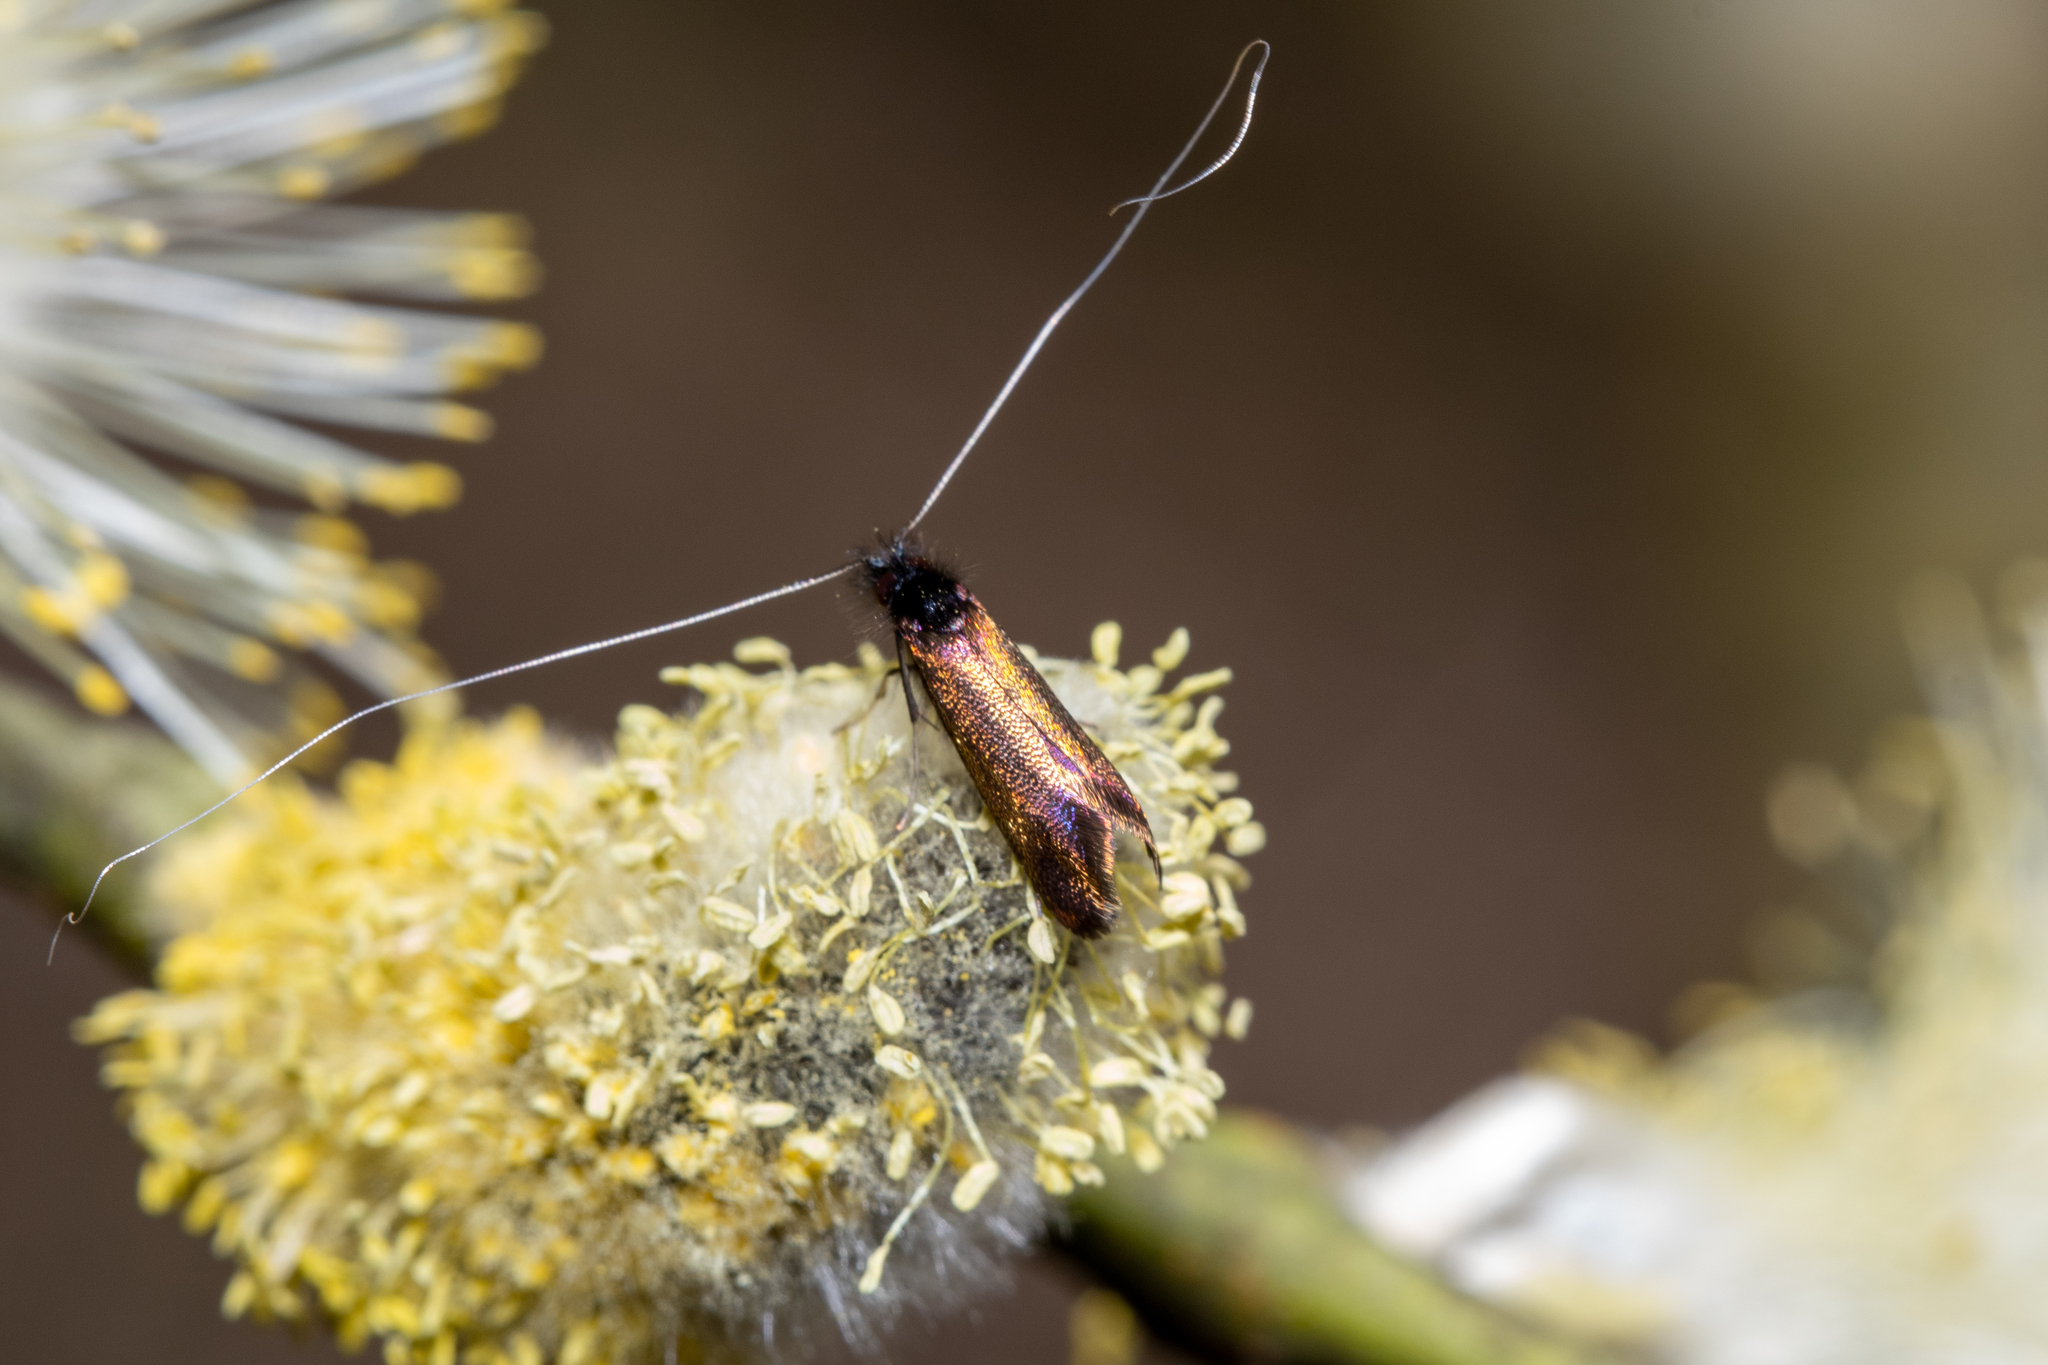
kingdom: Animalia
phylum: Arthropoda
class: Insecta
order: Lepidoptera
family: Adelidae
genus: Adela
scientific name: Adela cuprella
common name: Early long-horn
